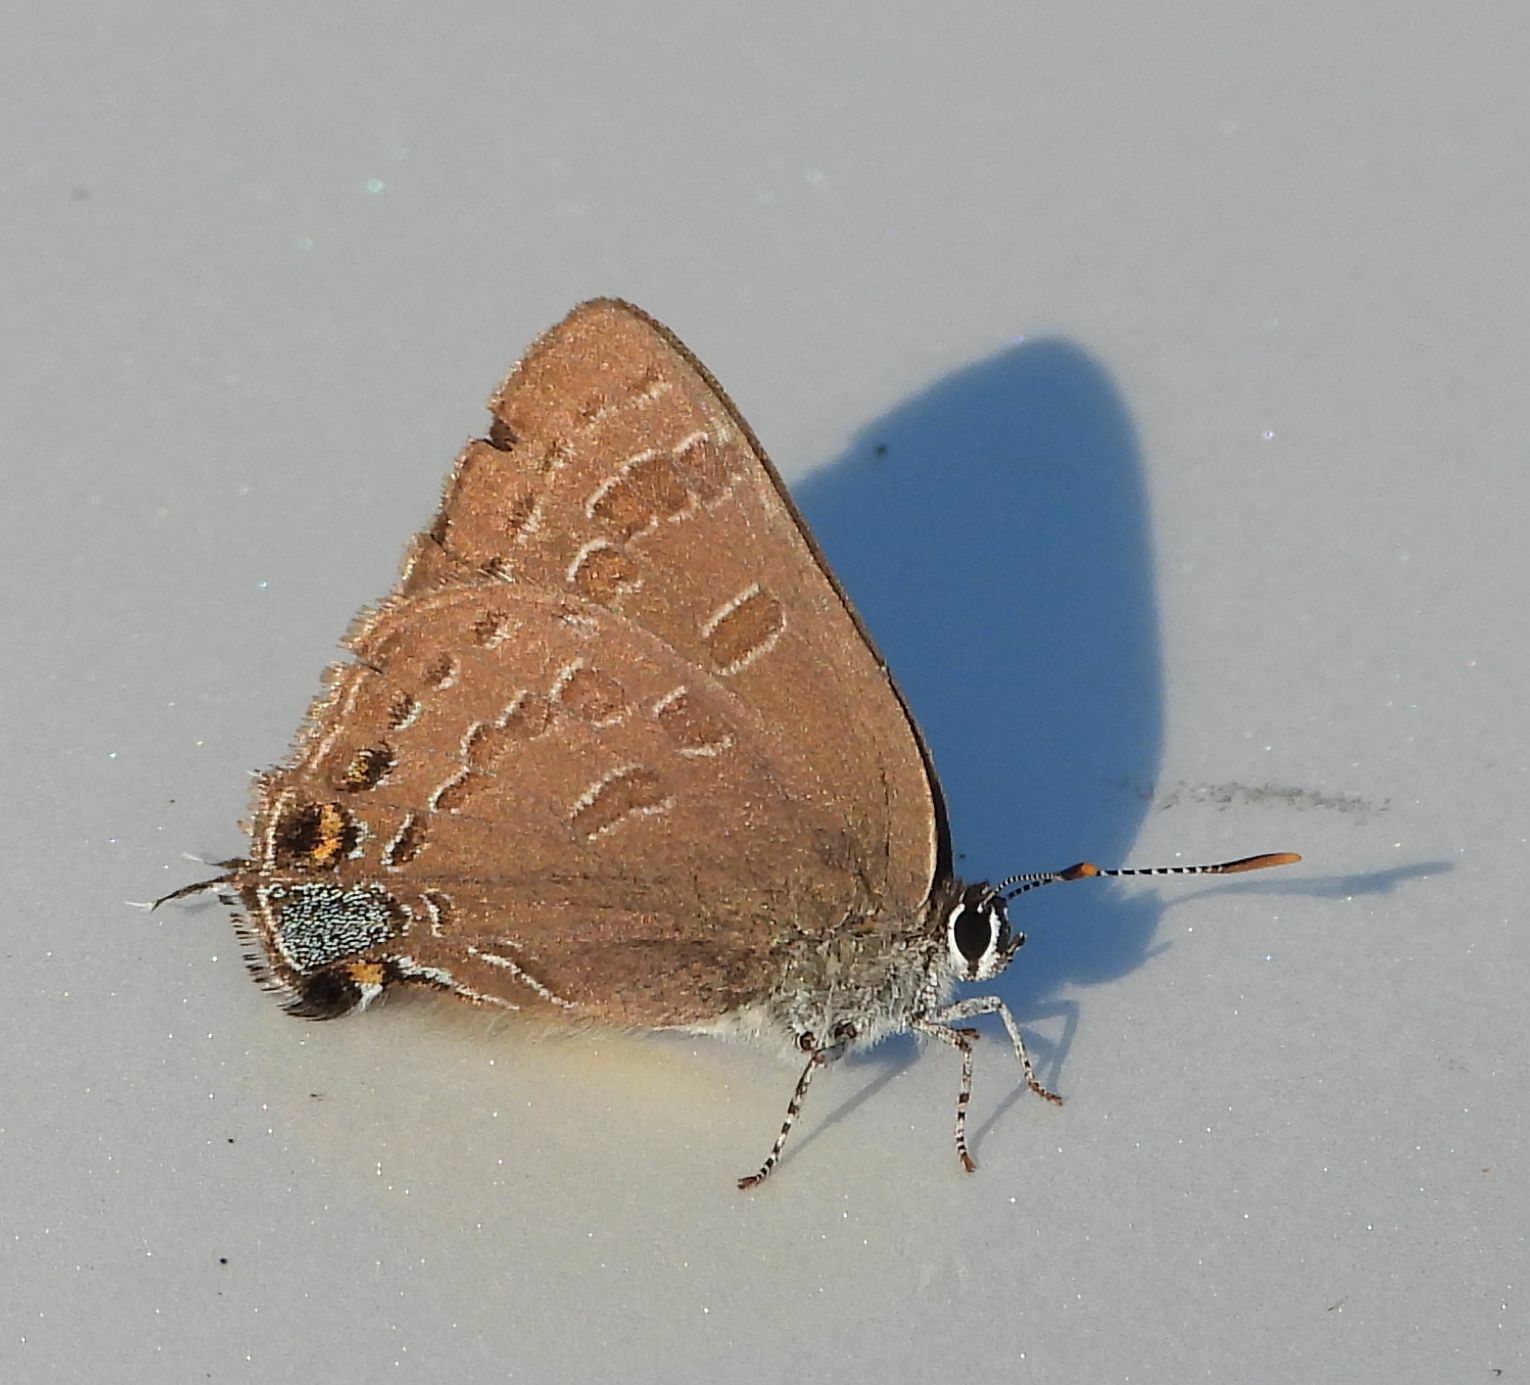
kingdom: Animalia
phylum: Arthropoda
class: Insecta
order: Lepidoptera
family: Lycaenidae
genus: Strymon
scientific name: Strymon caryaevorus
